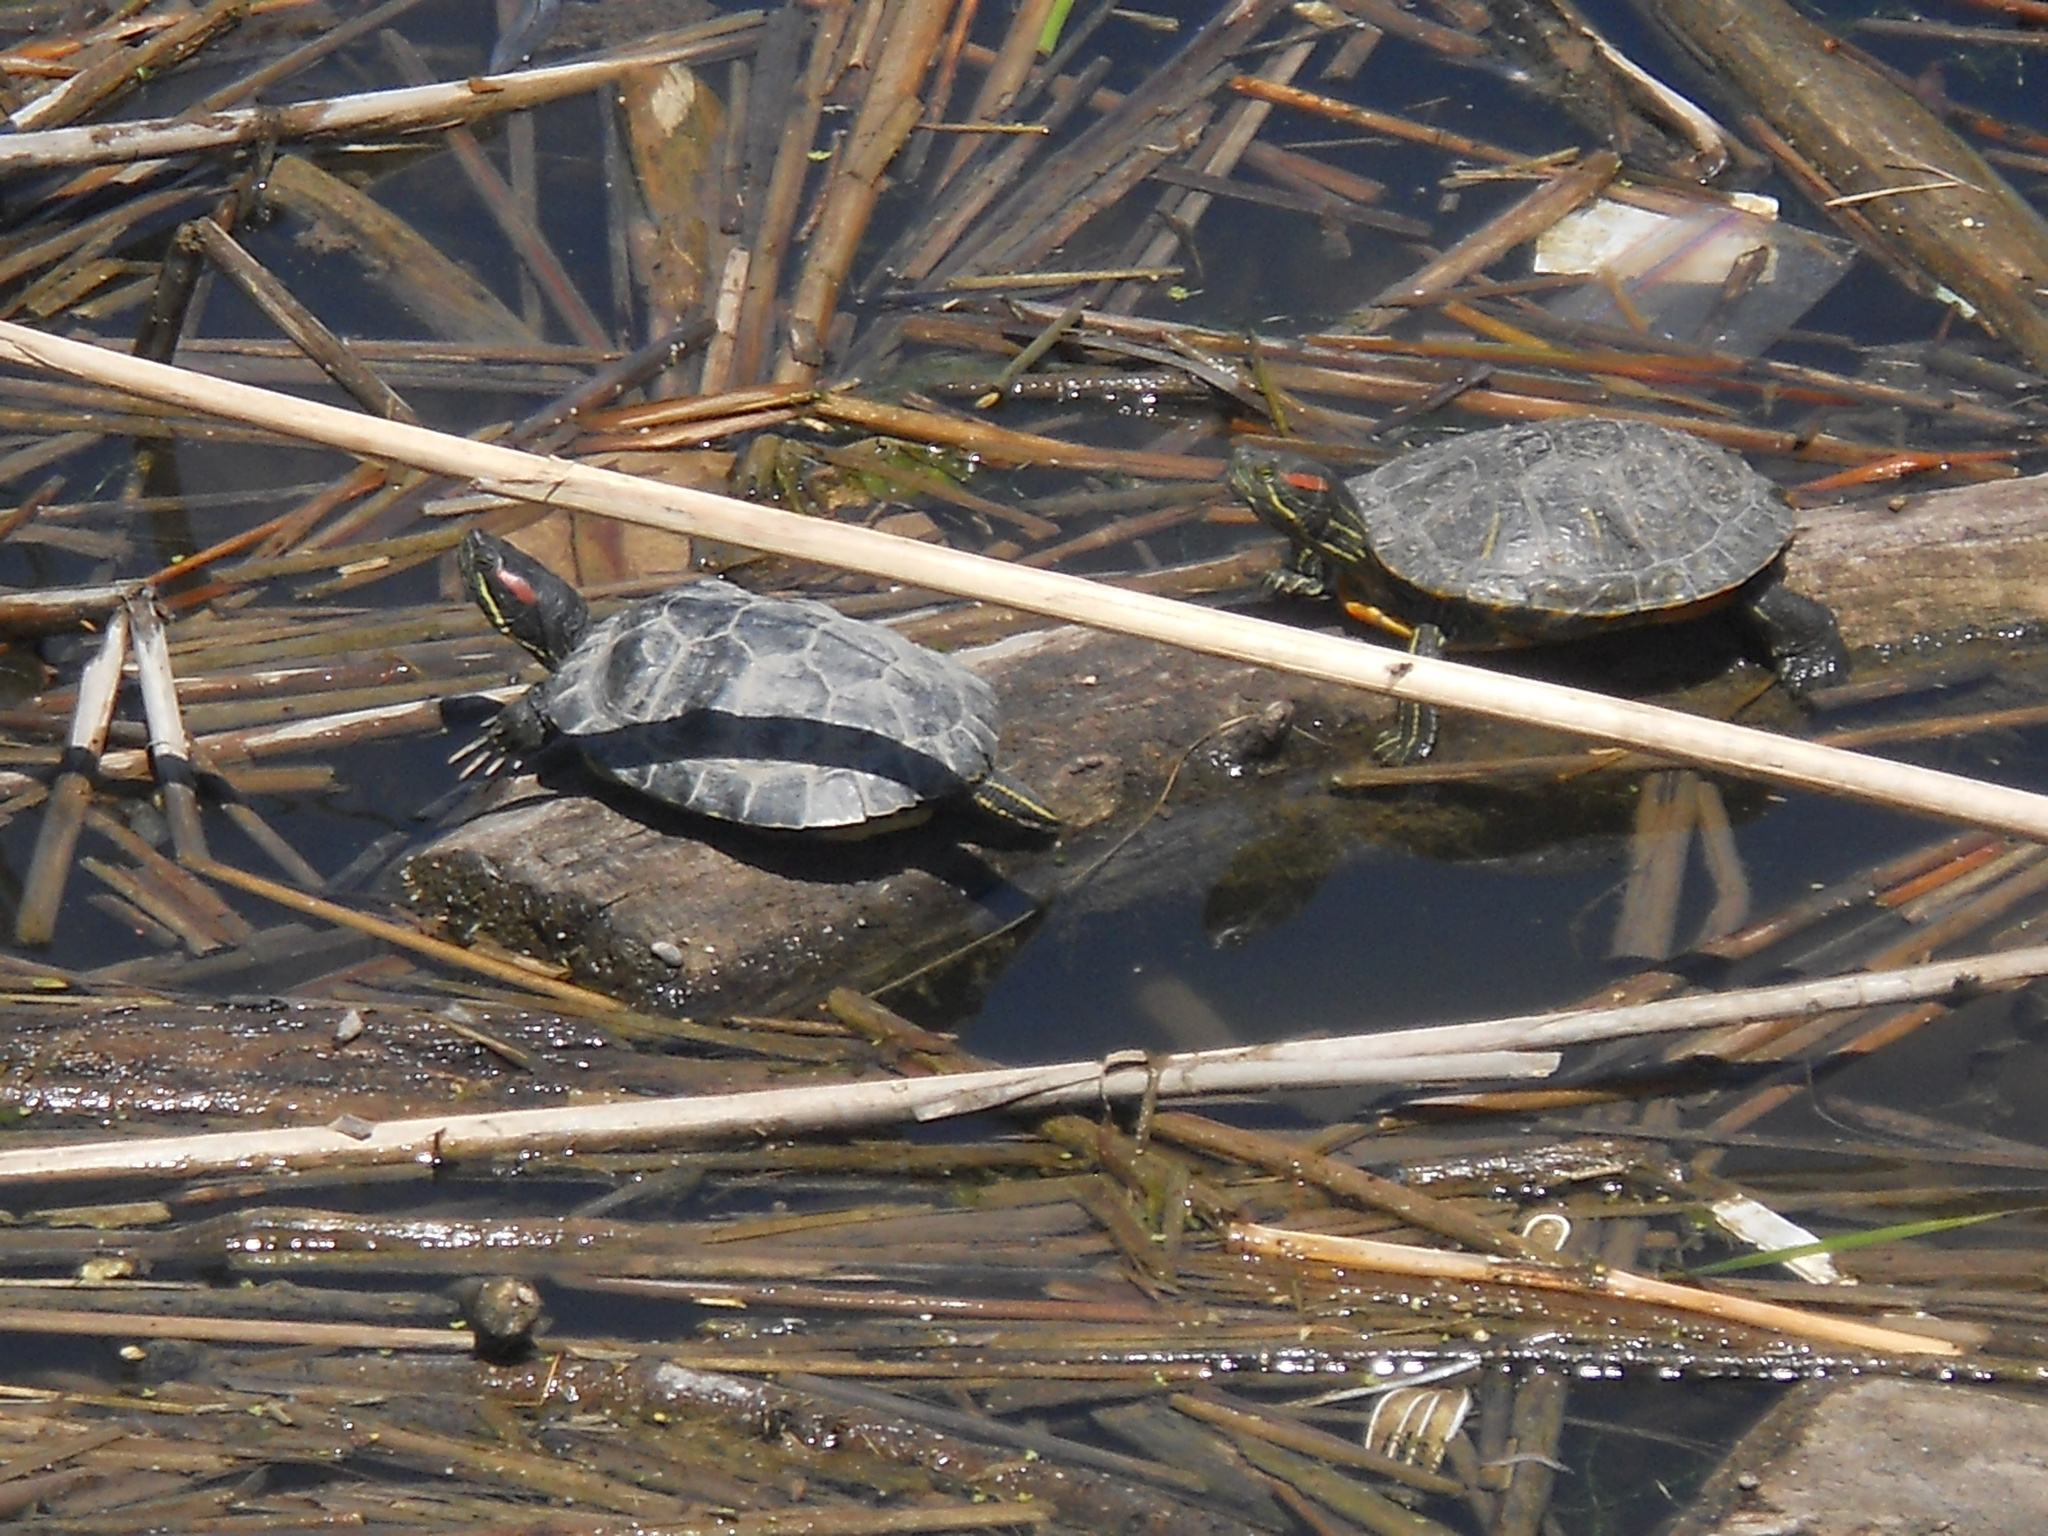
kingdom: Animalia
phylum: Chordata
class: Testudines
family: Emydidae
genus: Trachemys
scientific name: Trachemys scripta
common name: Slider
